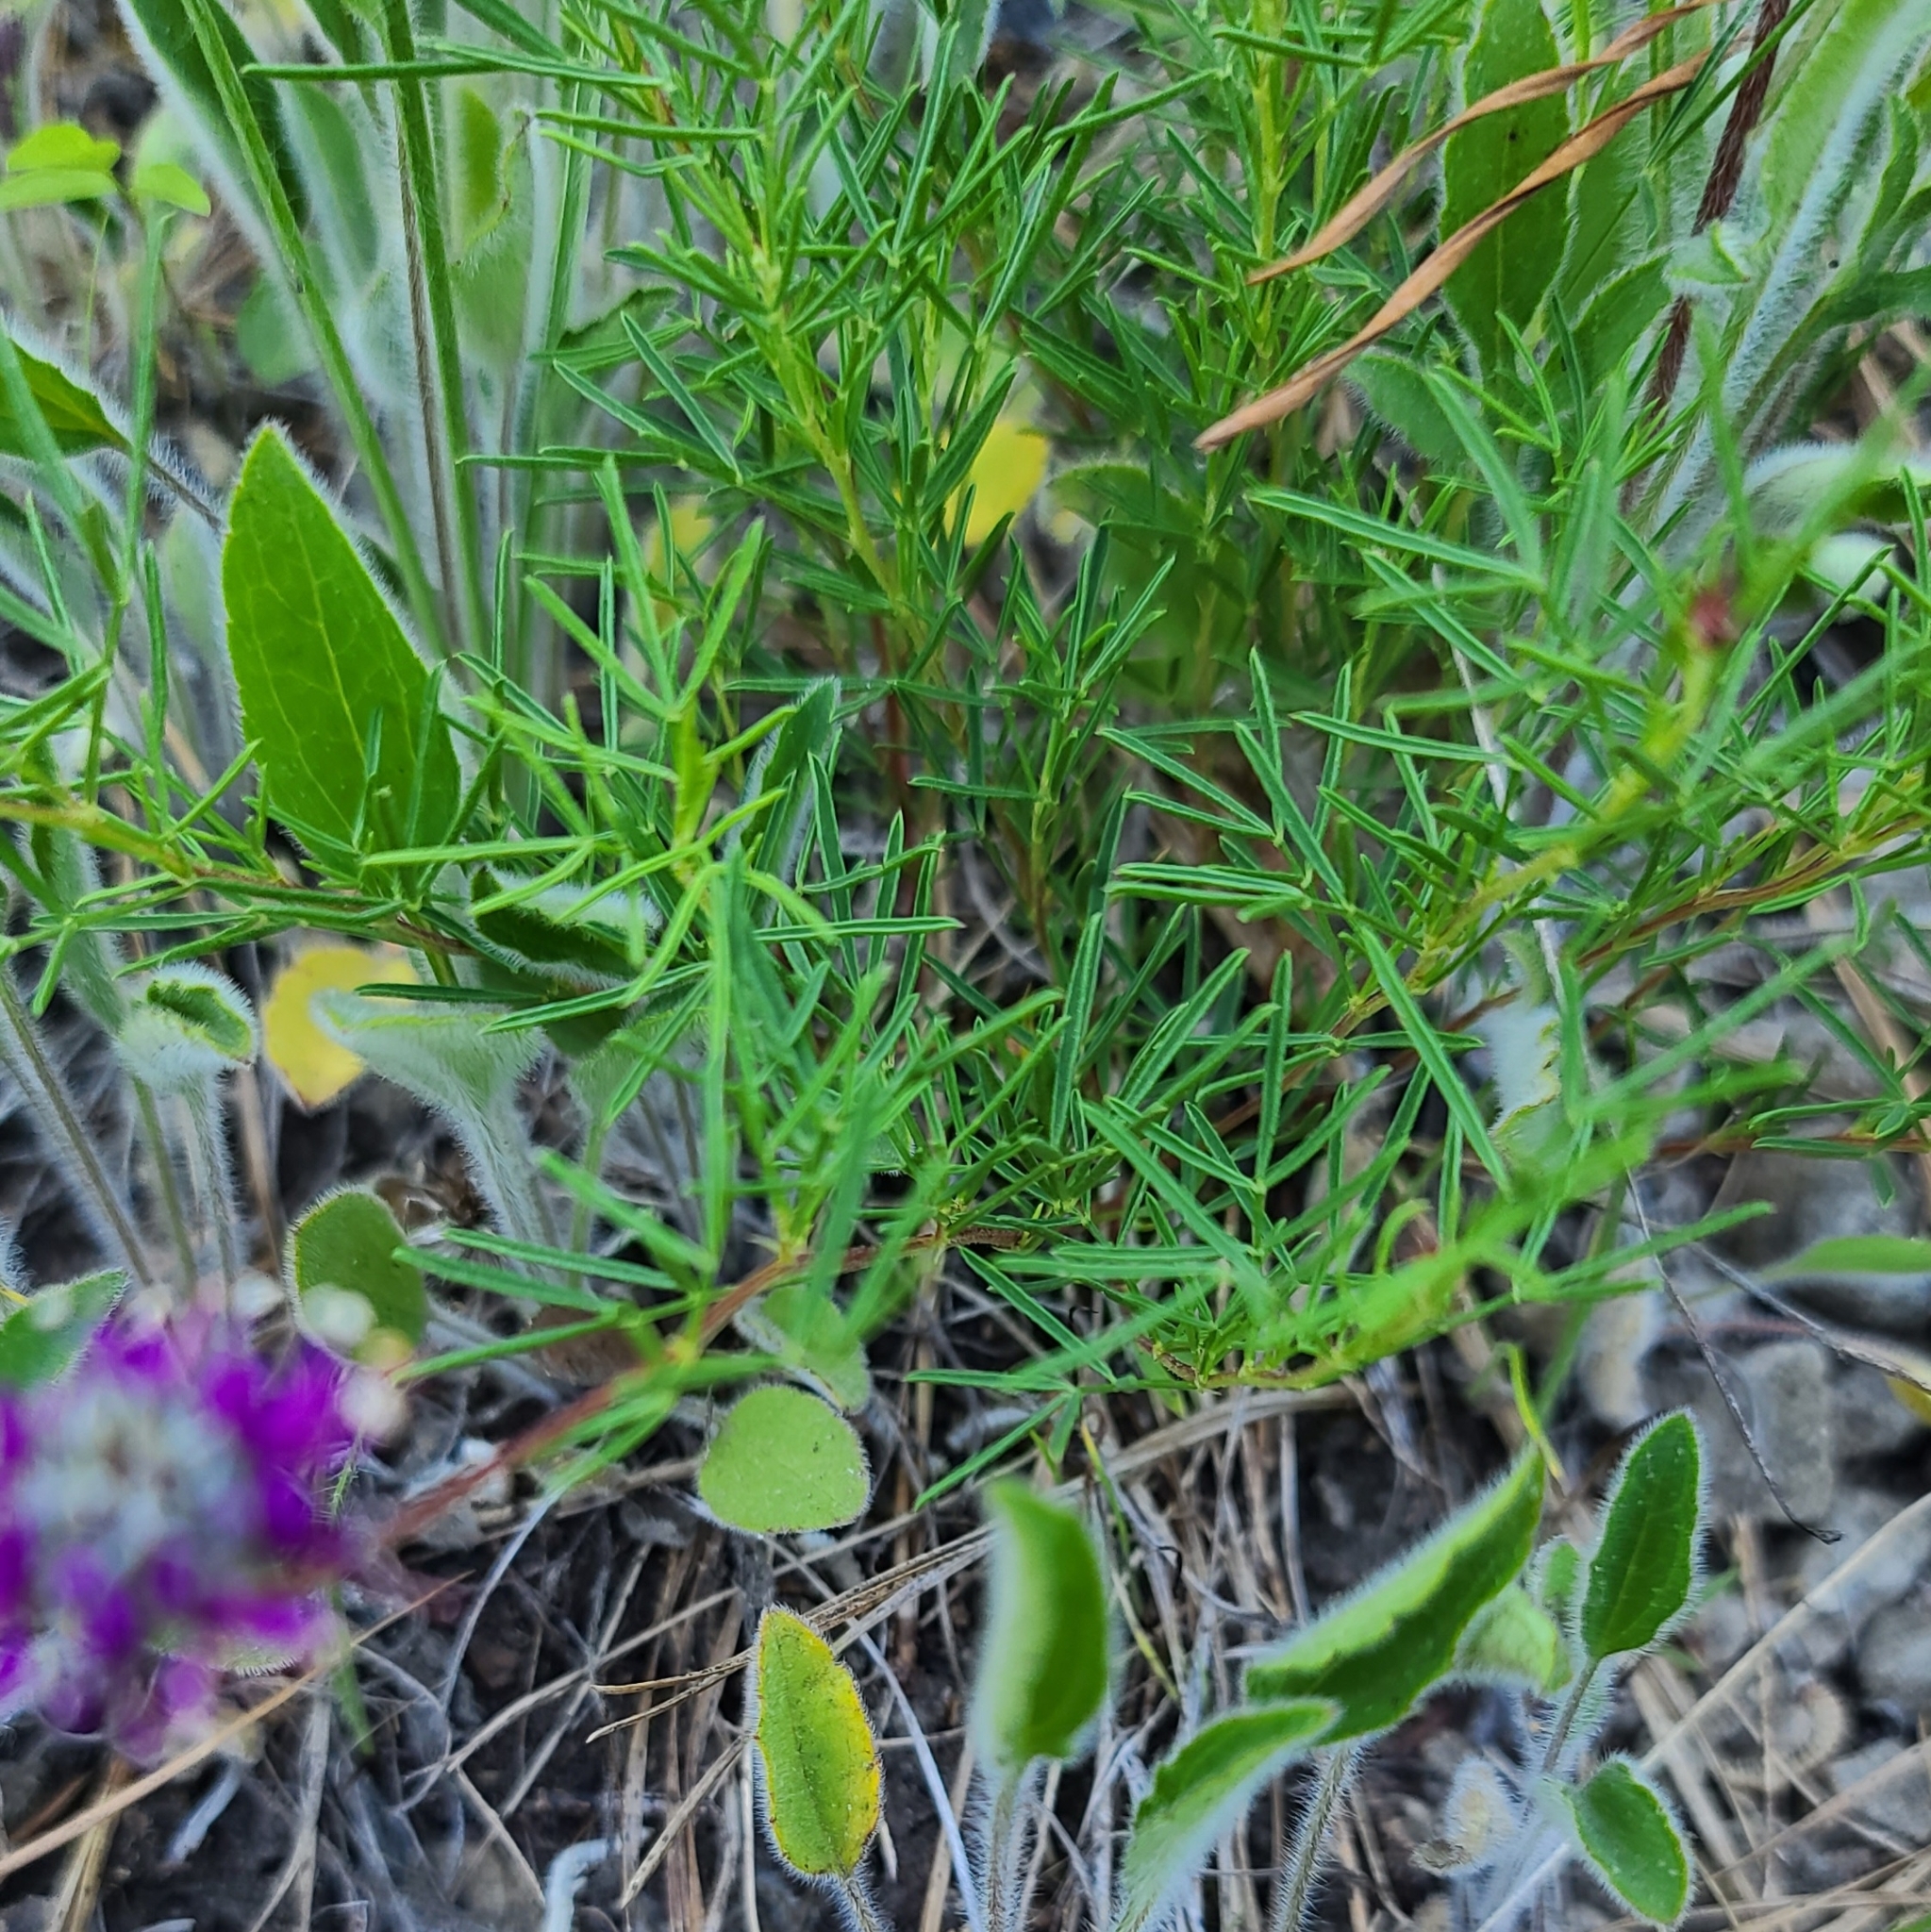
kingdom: Plantae
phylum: Tracheophyta
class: Magnoliopsida
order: Fabales
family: Fabaceae
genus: Dalea
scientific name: Dalea cahaba
